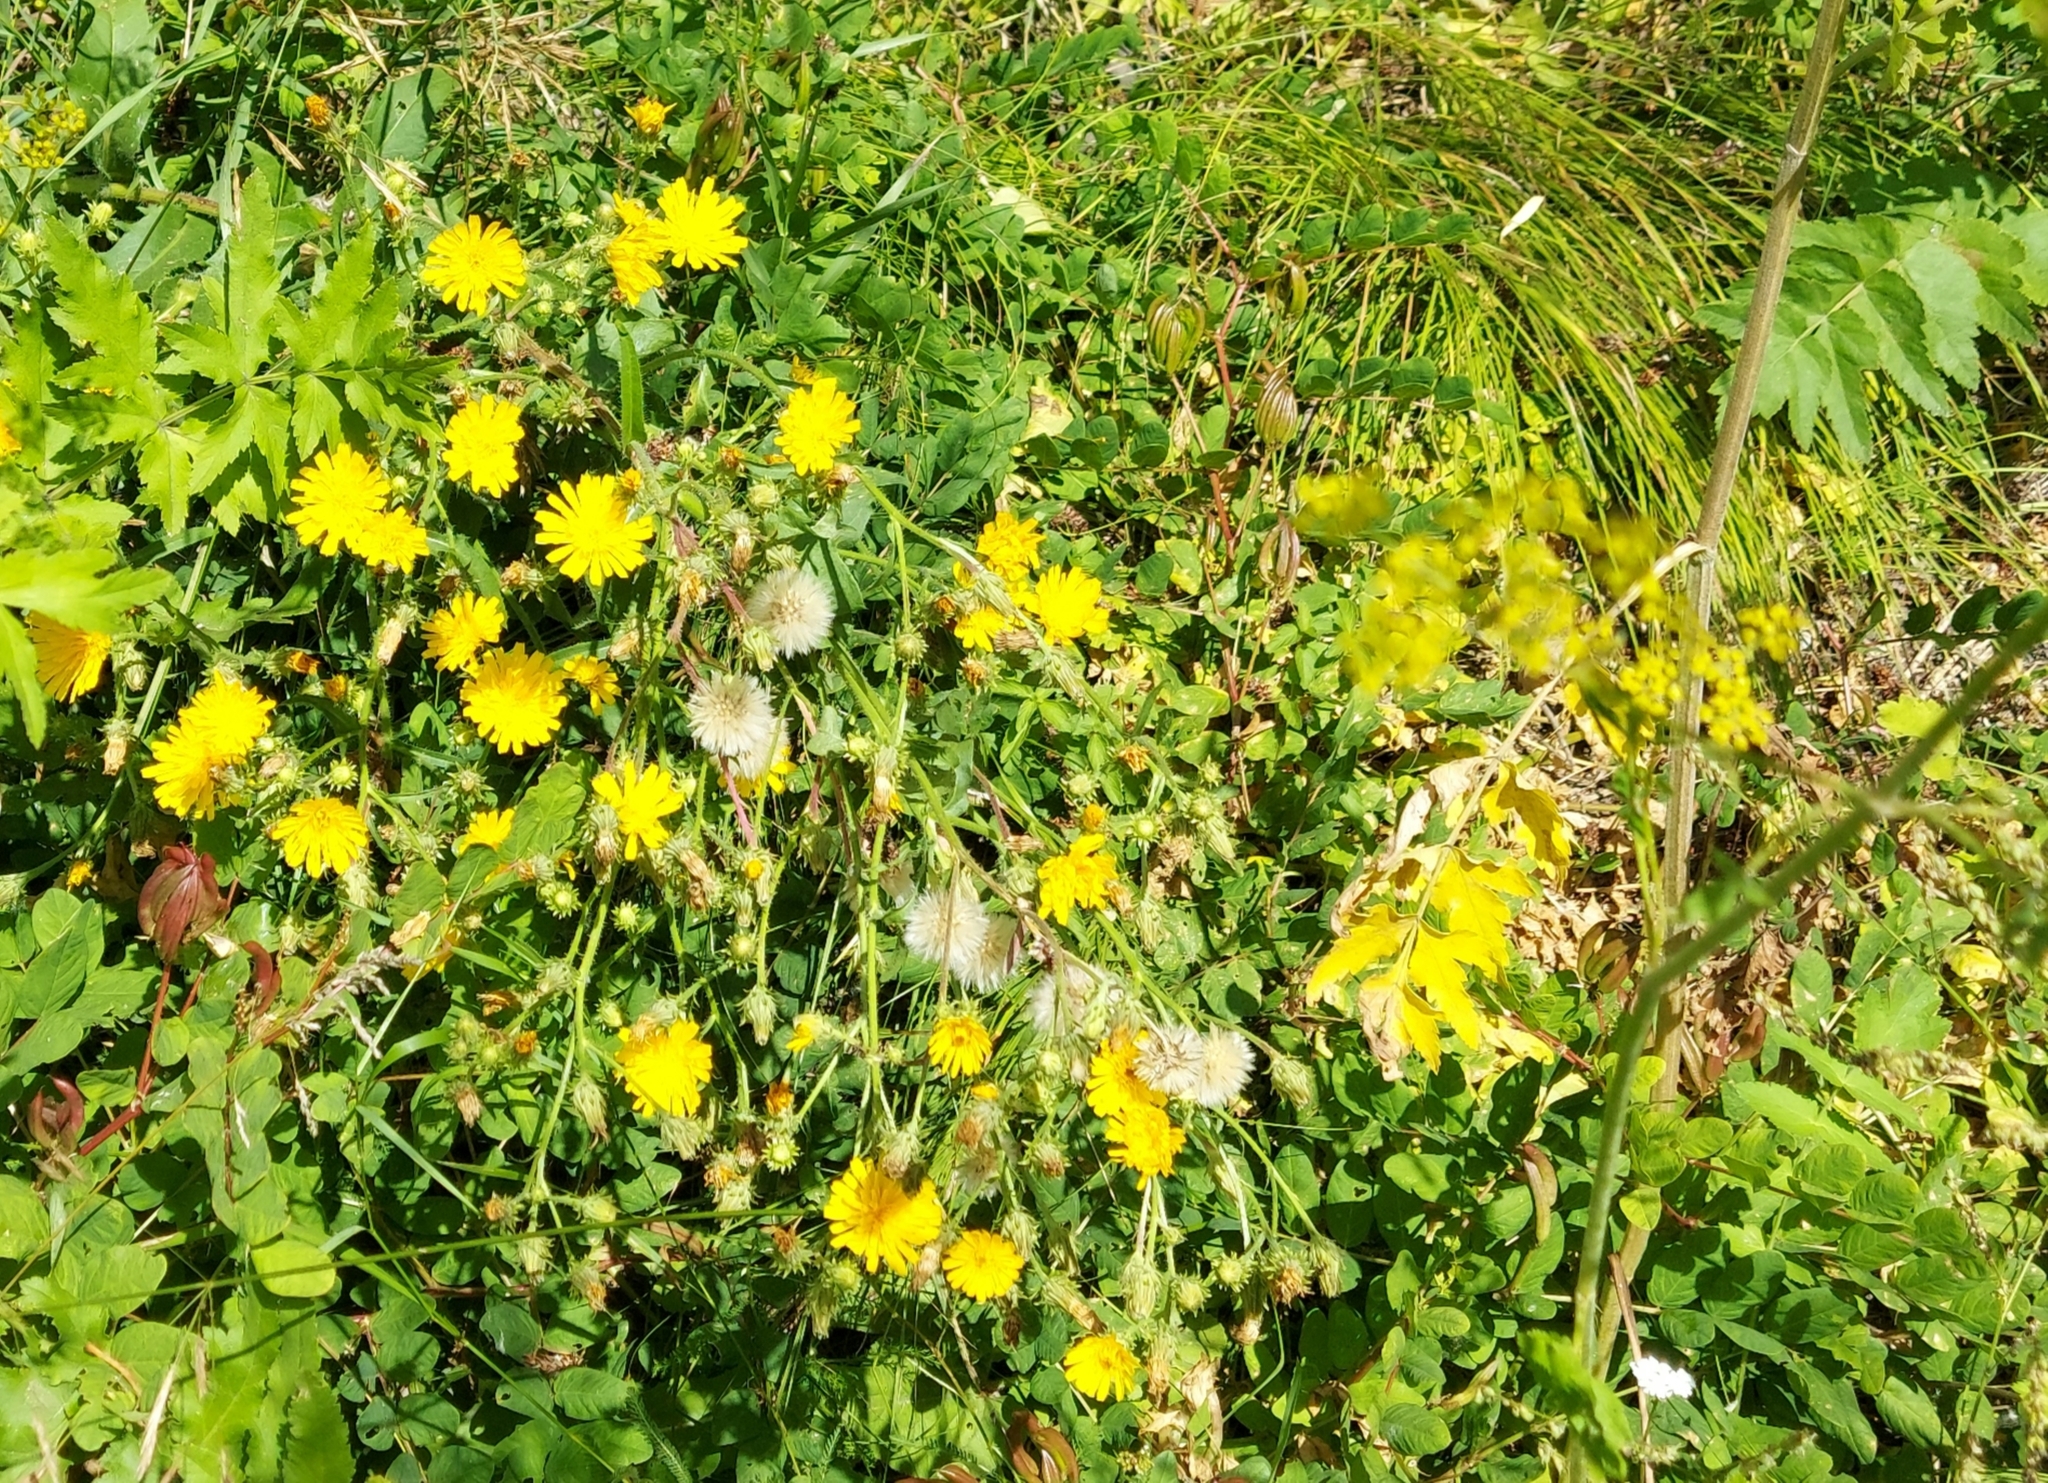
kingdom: Plantae
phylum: Tracheophyta
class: Magnoliopsida
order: Asterales
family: Asteraceae
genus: Picris
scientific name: Picris hieracioides
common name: Hawkweed oxtongue
